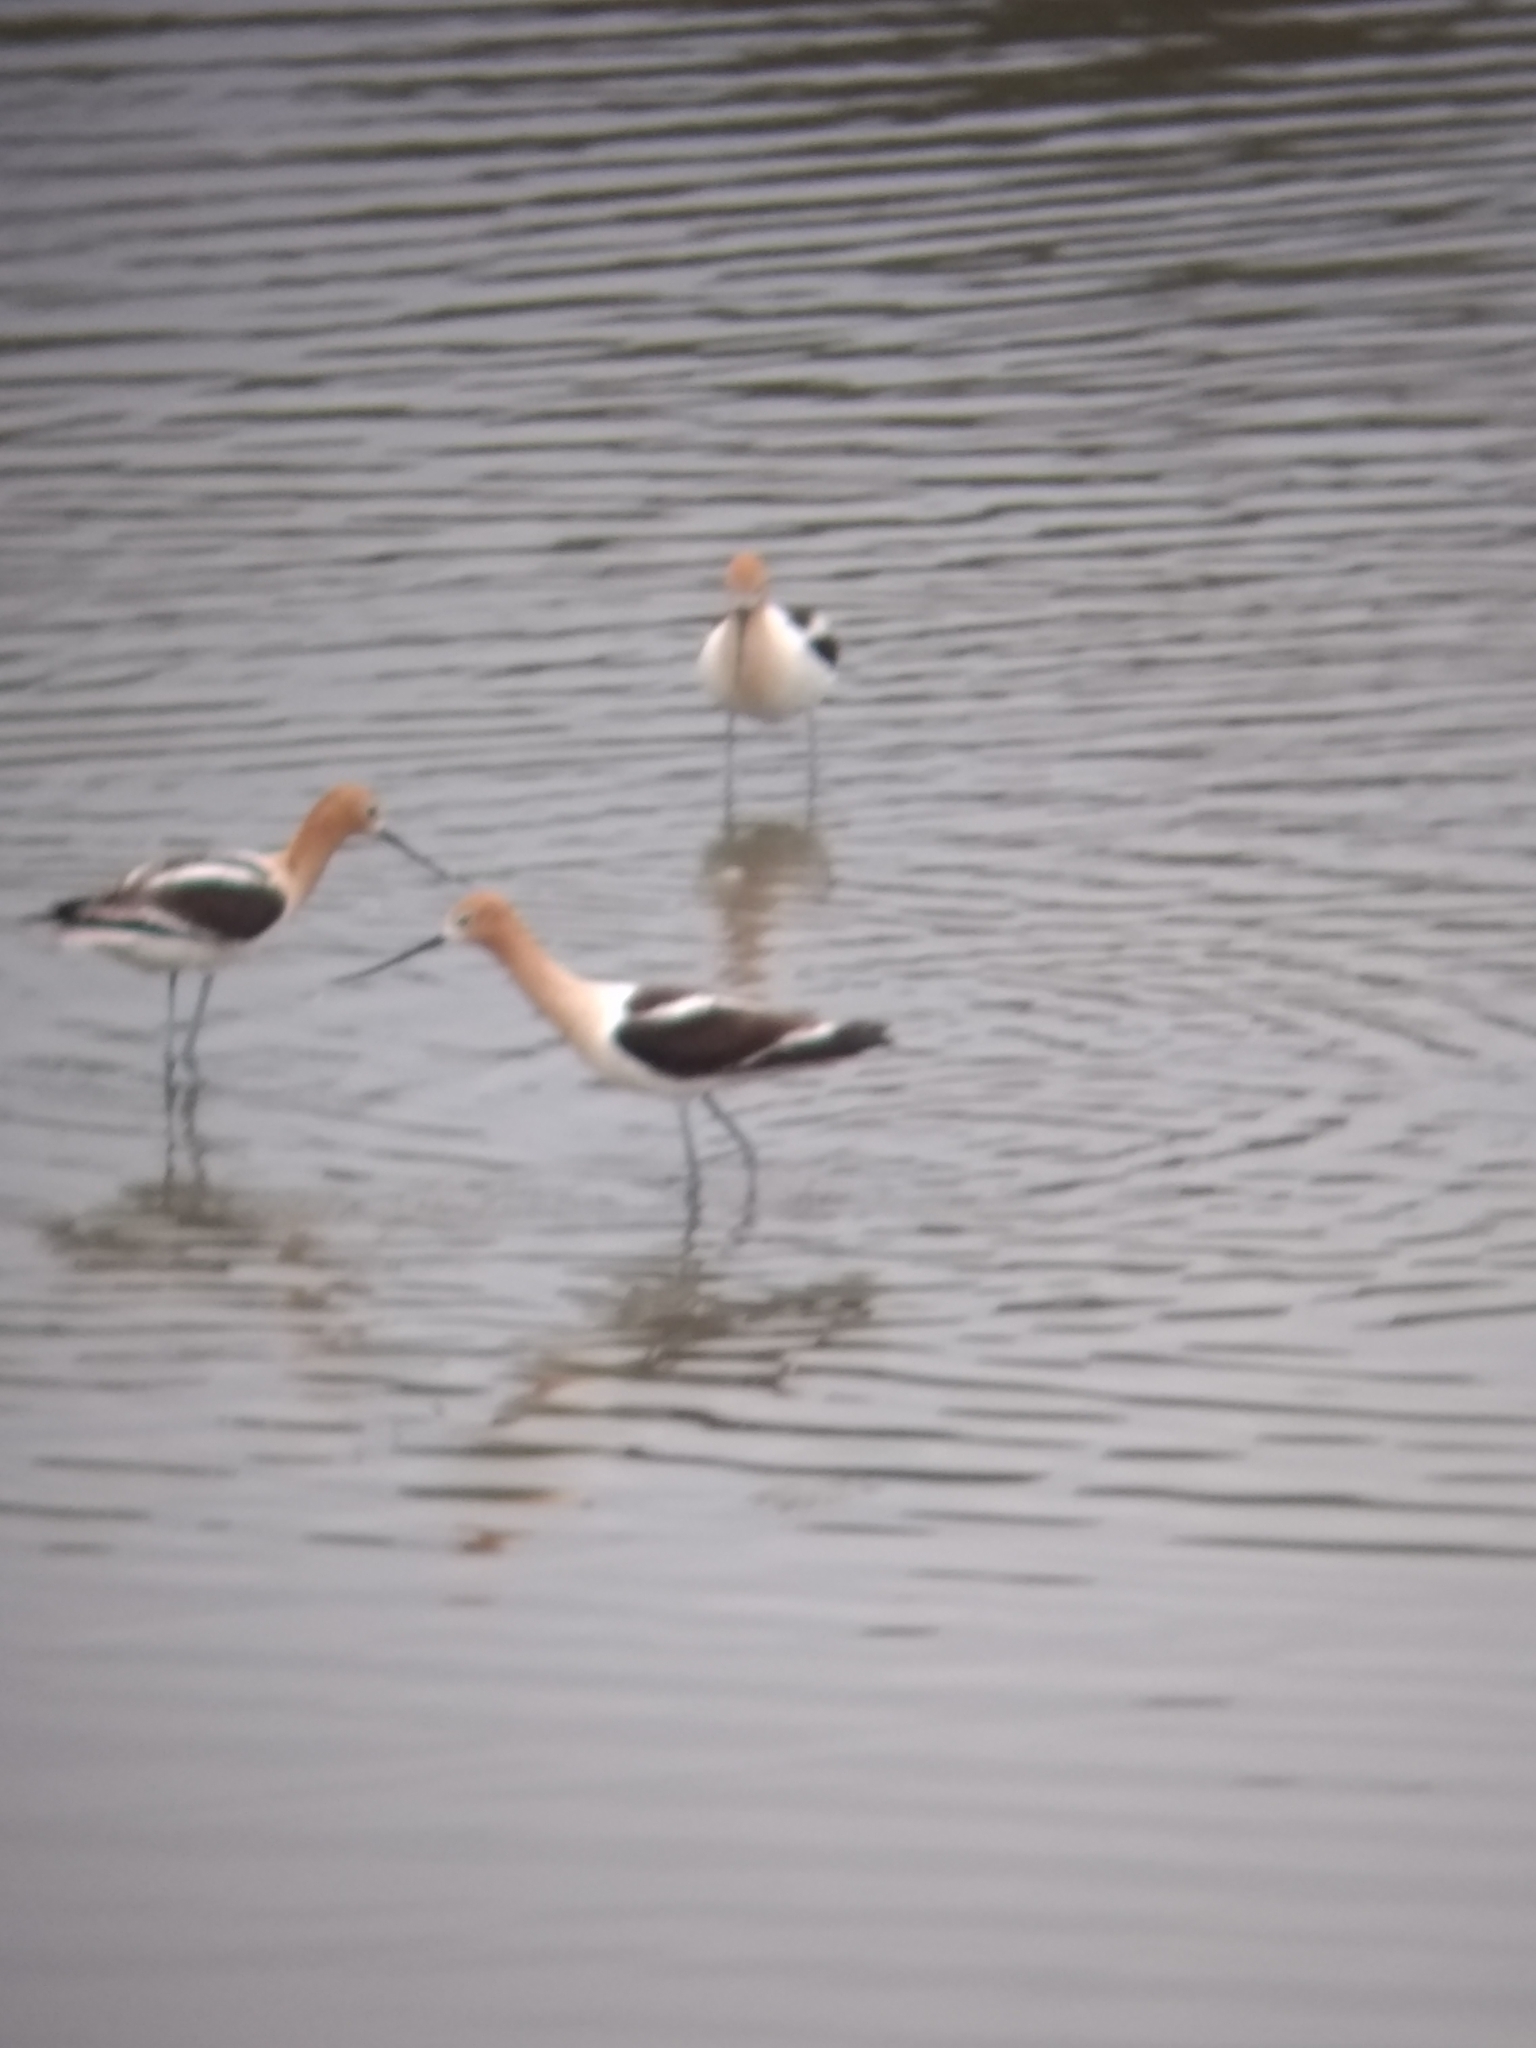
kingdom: Animalia
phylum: Chordata
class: Aves
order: Charadriiformes
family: Recurvirostridae
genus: Recurvirostra
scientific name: Recurvirostra americana
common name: American avocet
